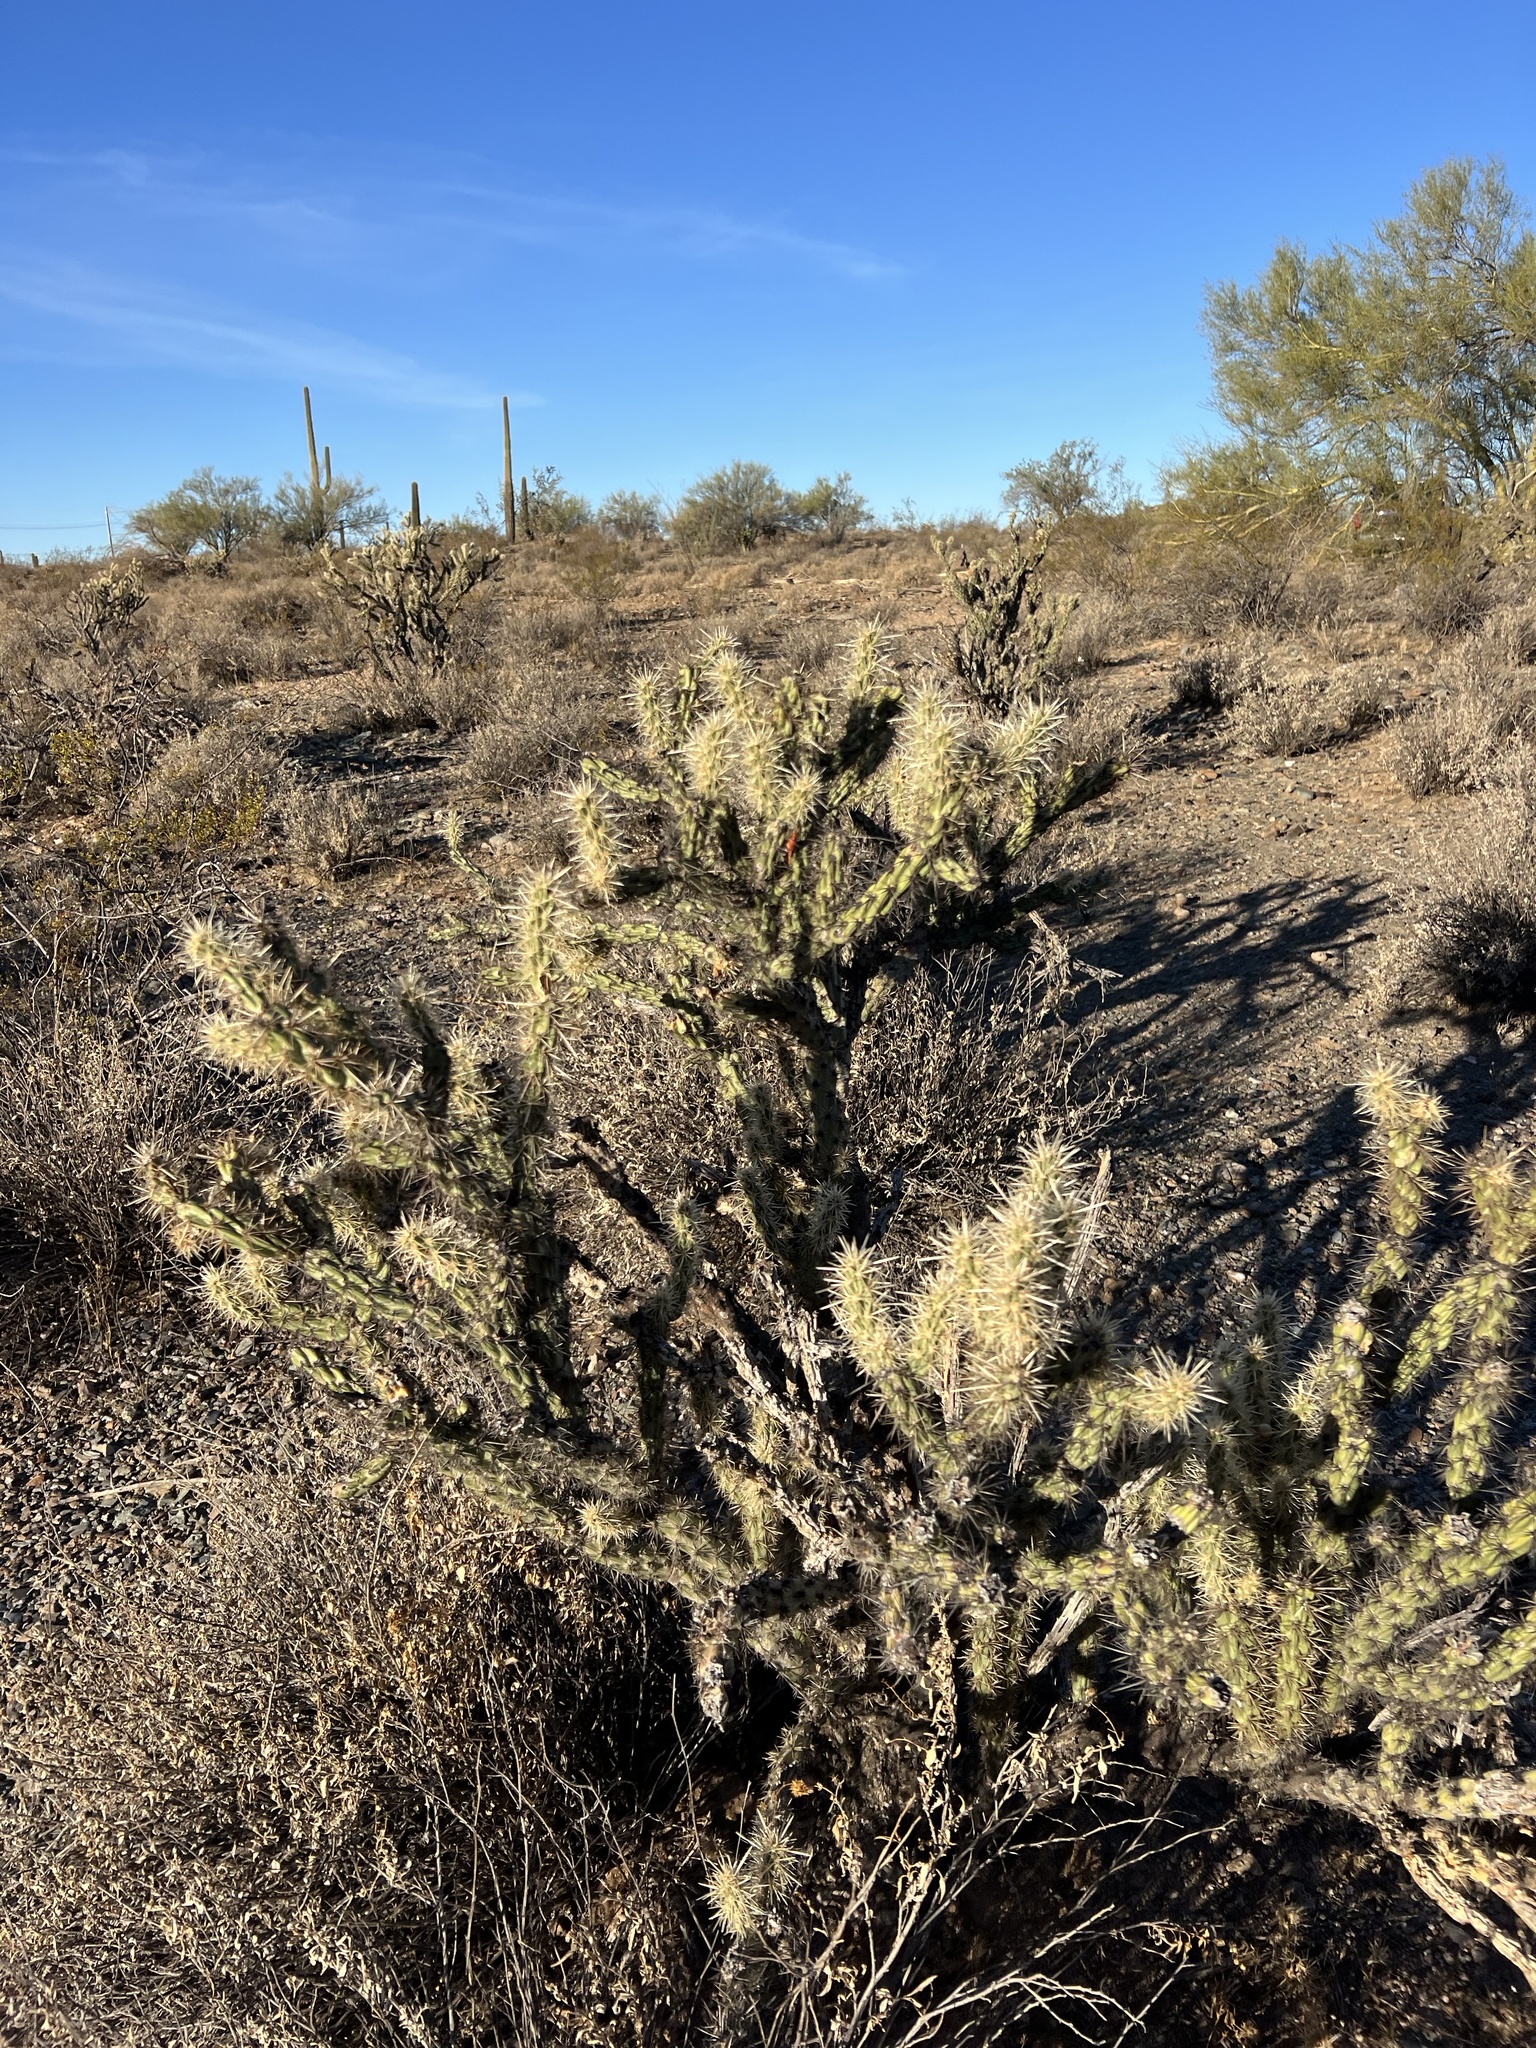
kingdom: Plantae
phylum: Tracheophyta
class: Magnoliopsida
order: Caryophyllales
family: Cactaceae
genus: Cylindropuntia
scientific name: Cylindropuntia acanthocarpa
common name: Buckhorn cholla
